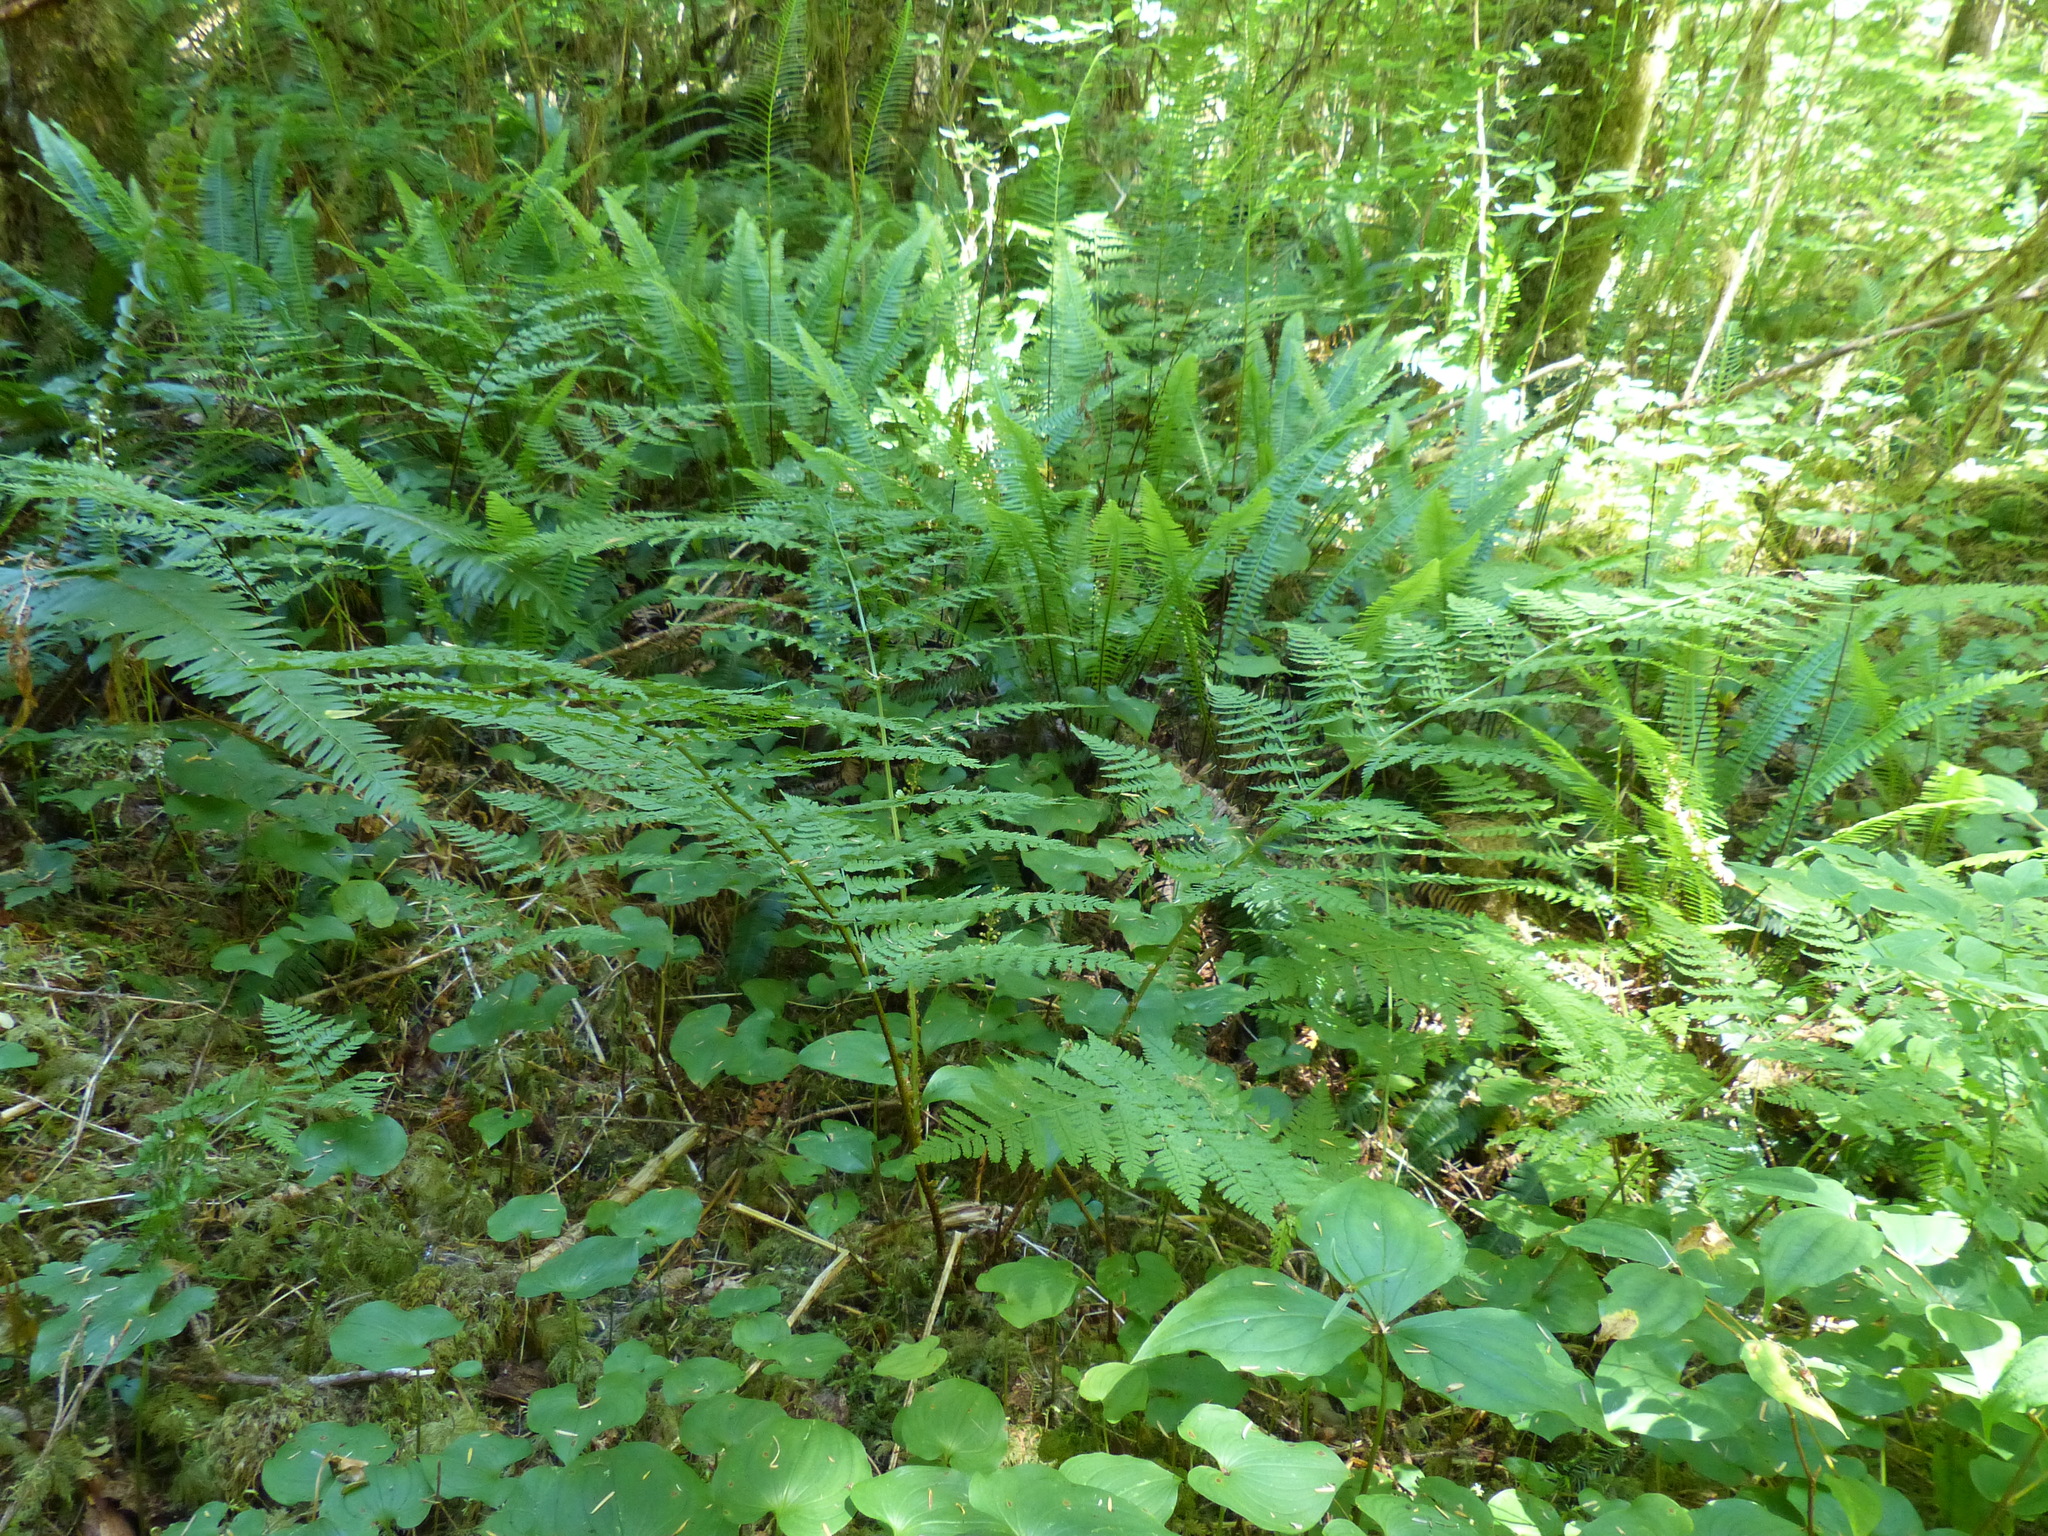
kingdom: Plantae
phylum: Tracheophyta
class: Polypodiopsida
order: Polypodiales
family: Blechnaceae
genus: Struthiopteris
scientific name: Struthiopteris spicant
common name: Deer fern
